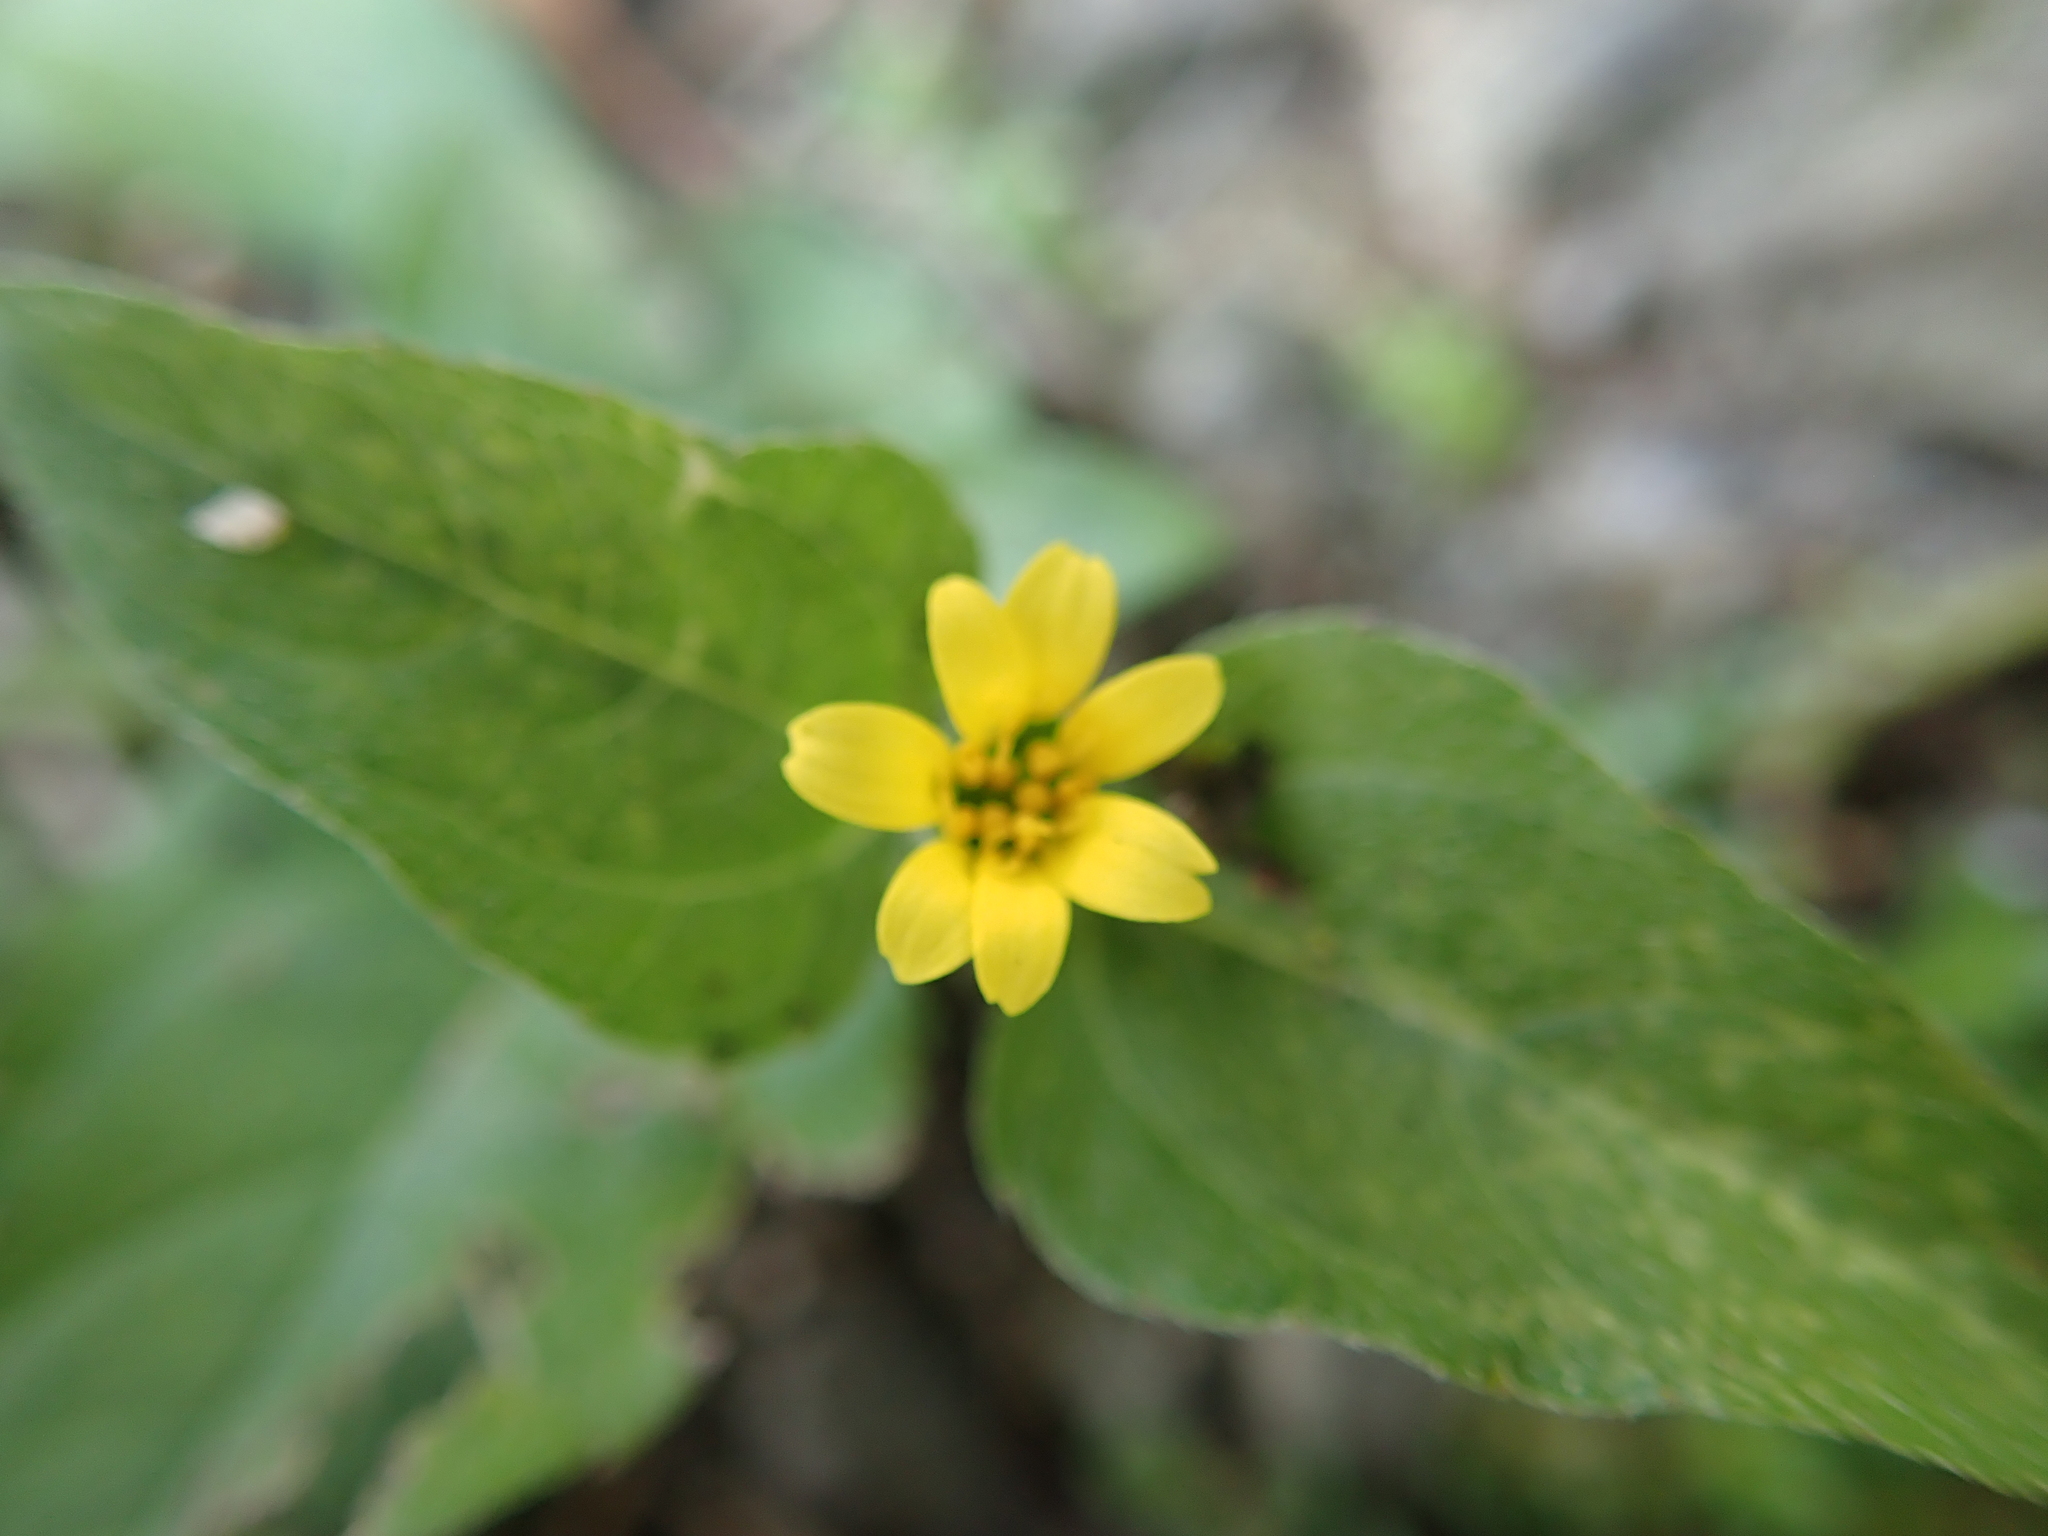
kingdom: Plantae
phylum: Tracheophyta
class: Magnoliopsida
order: Asterales
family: Asteraceae
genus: Calyptocarpus
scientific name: Calyptocarpus vialis
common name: Straggler daisy
